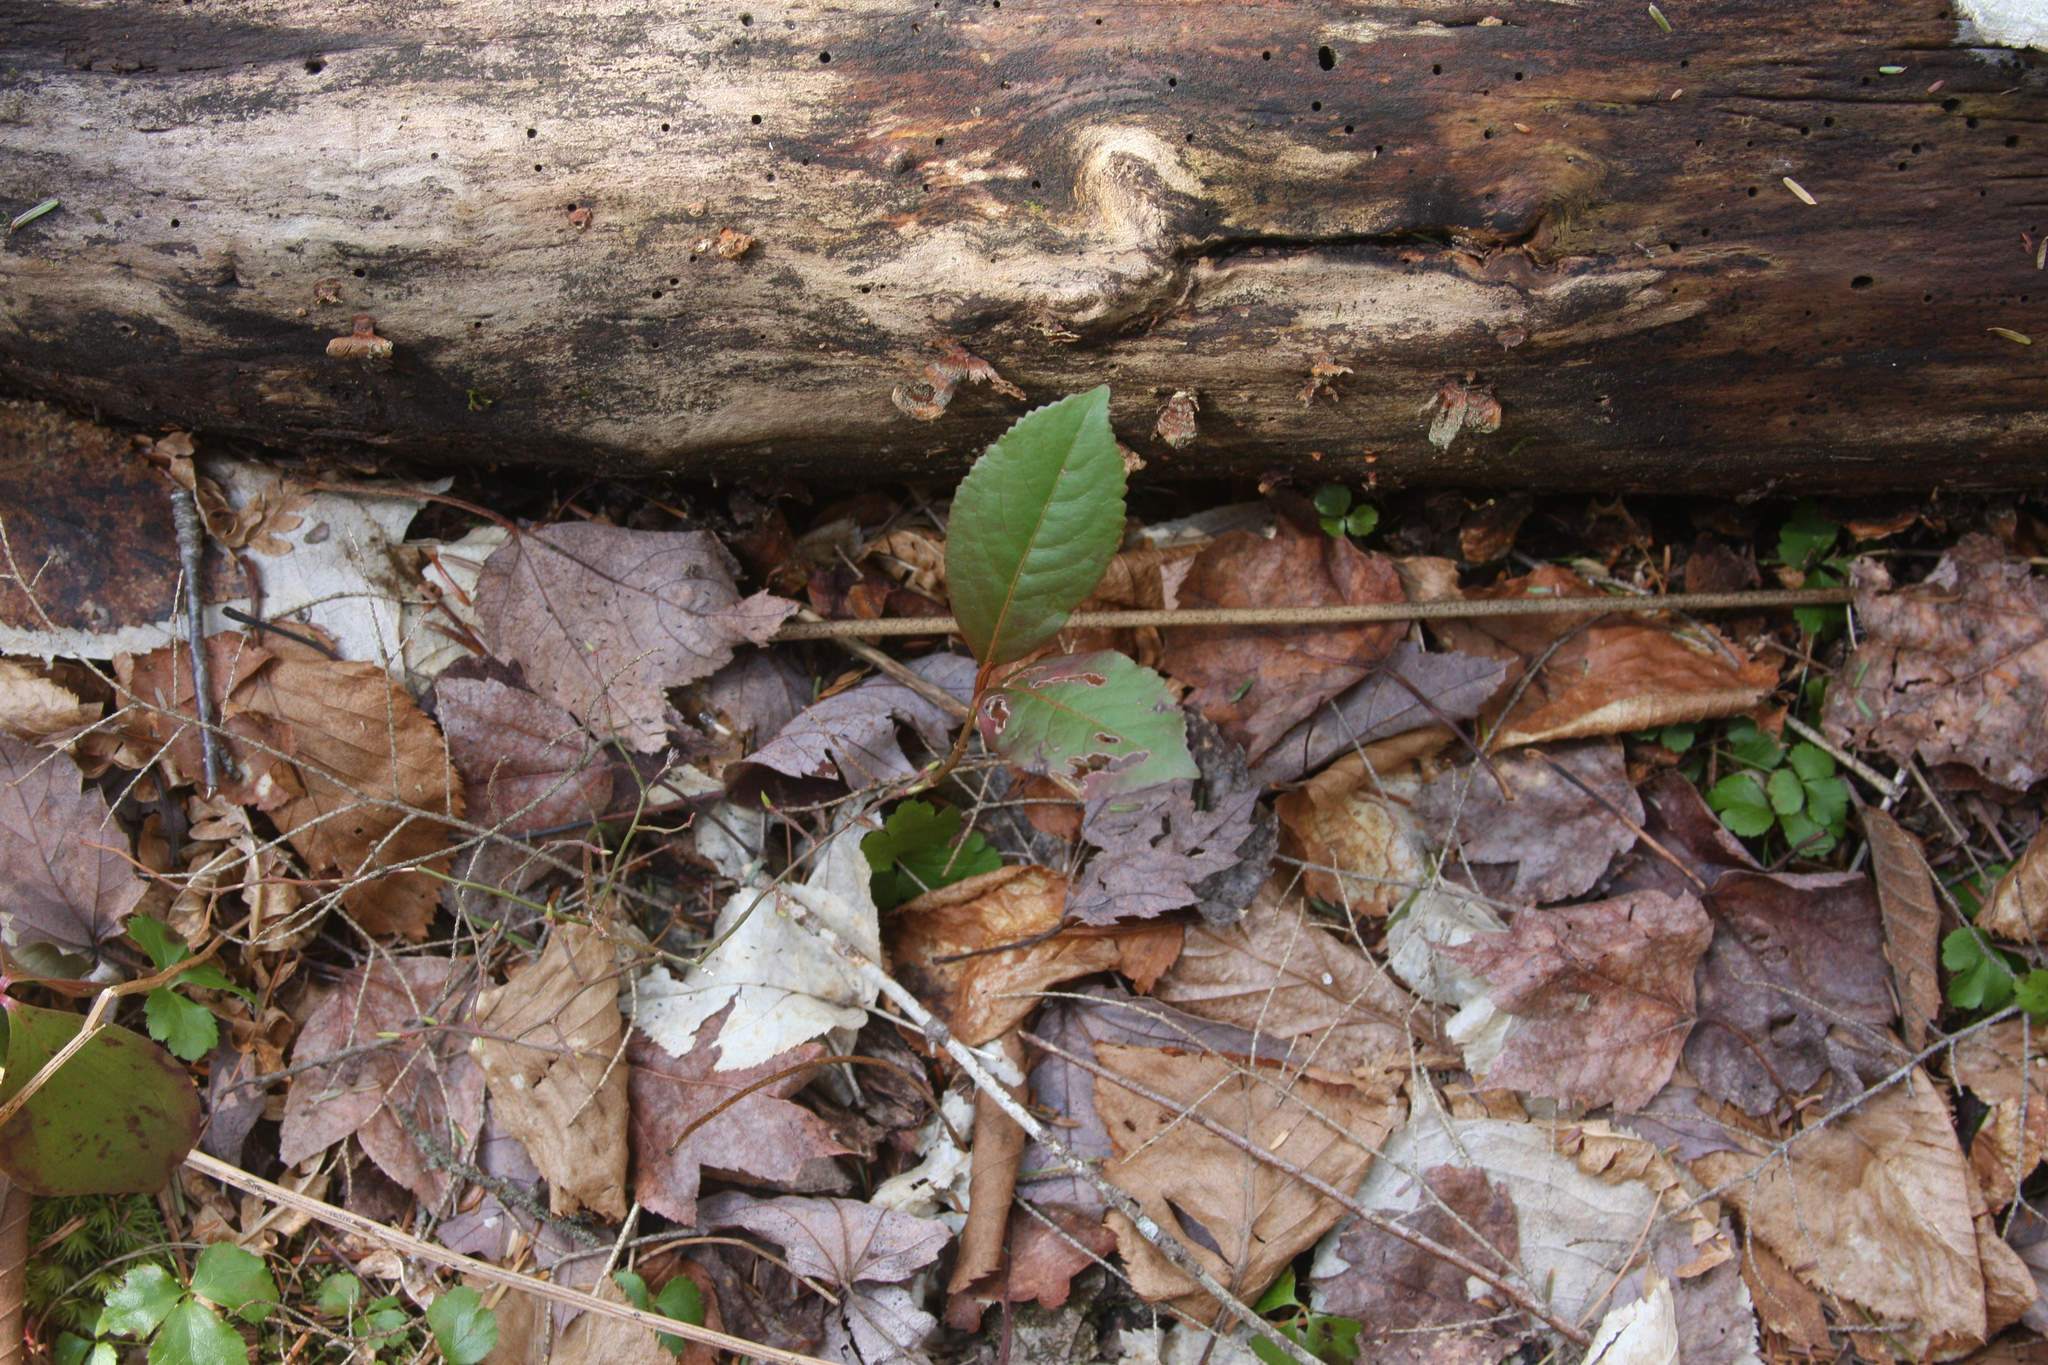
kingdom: Plantae
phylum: Tracheophyta
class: Magnoliopsida
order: Dipsacales
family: Viburnaceae
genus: Viburnum
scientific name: Viburnum cassinoides
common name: Swamp haw
